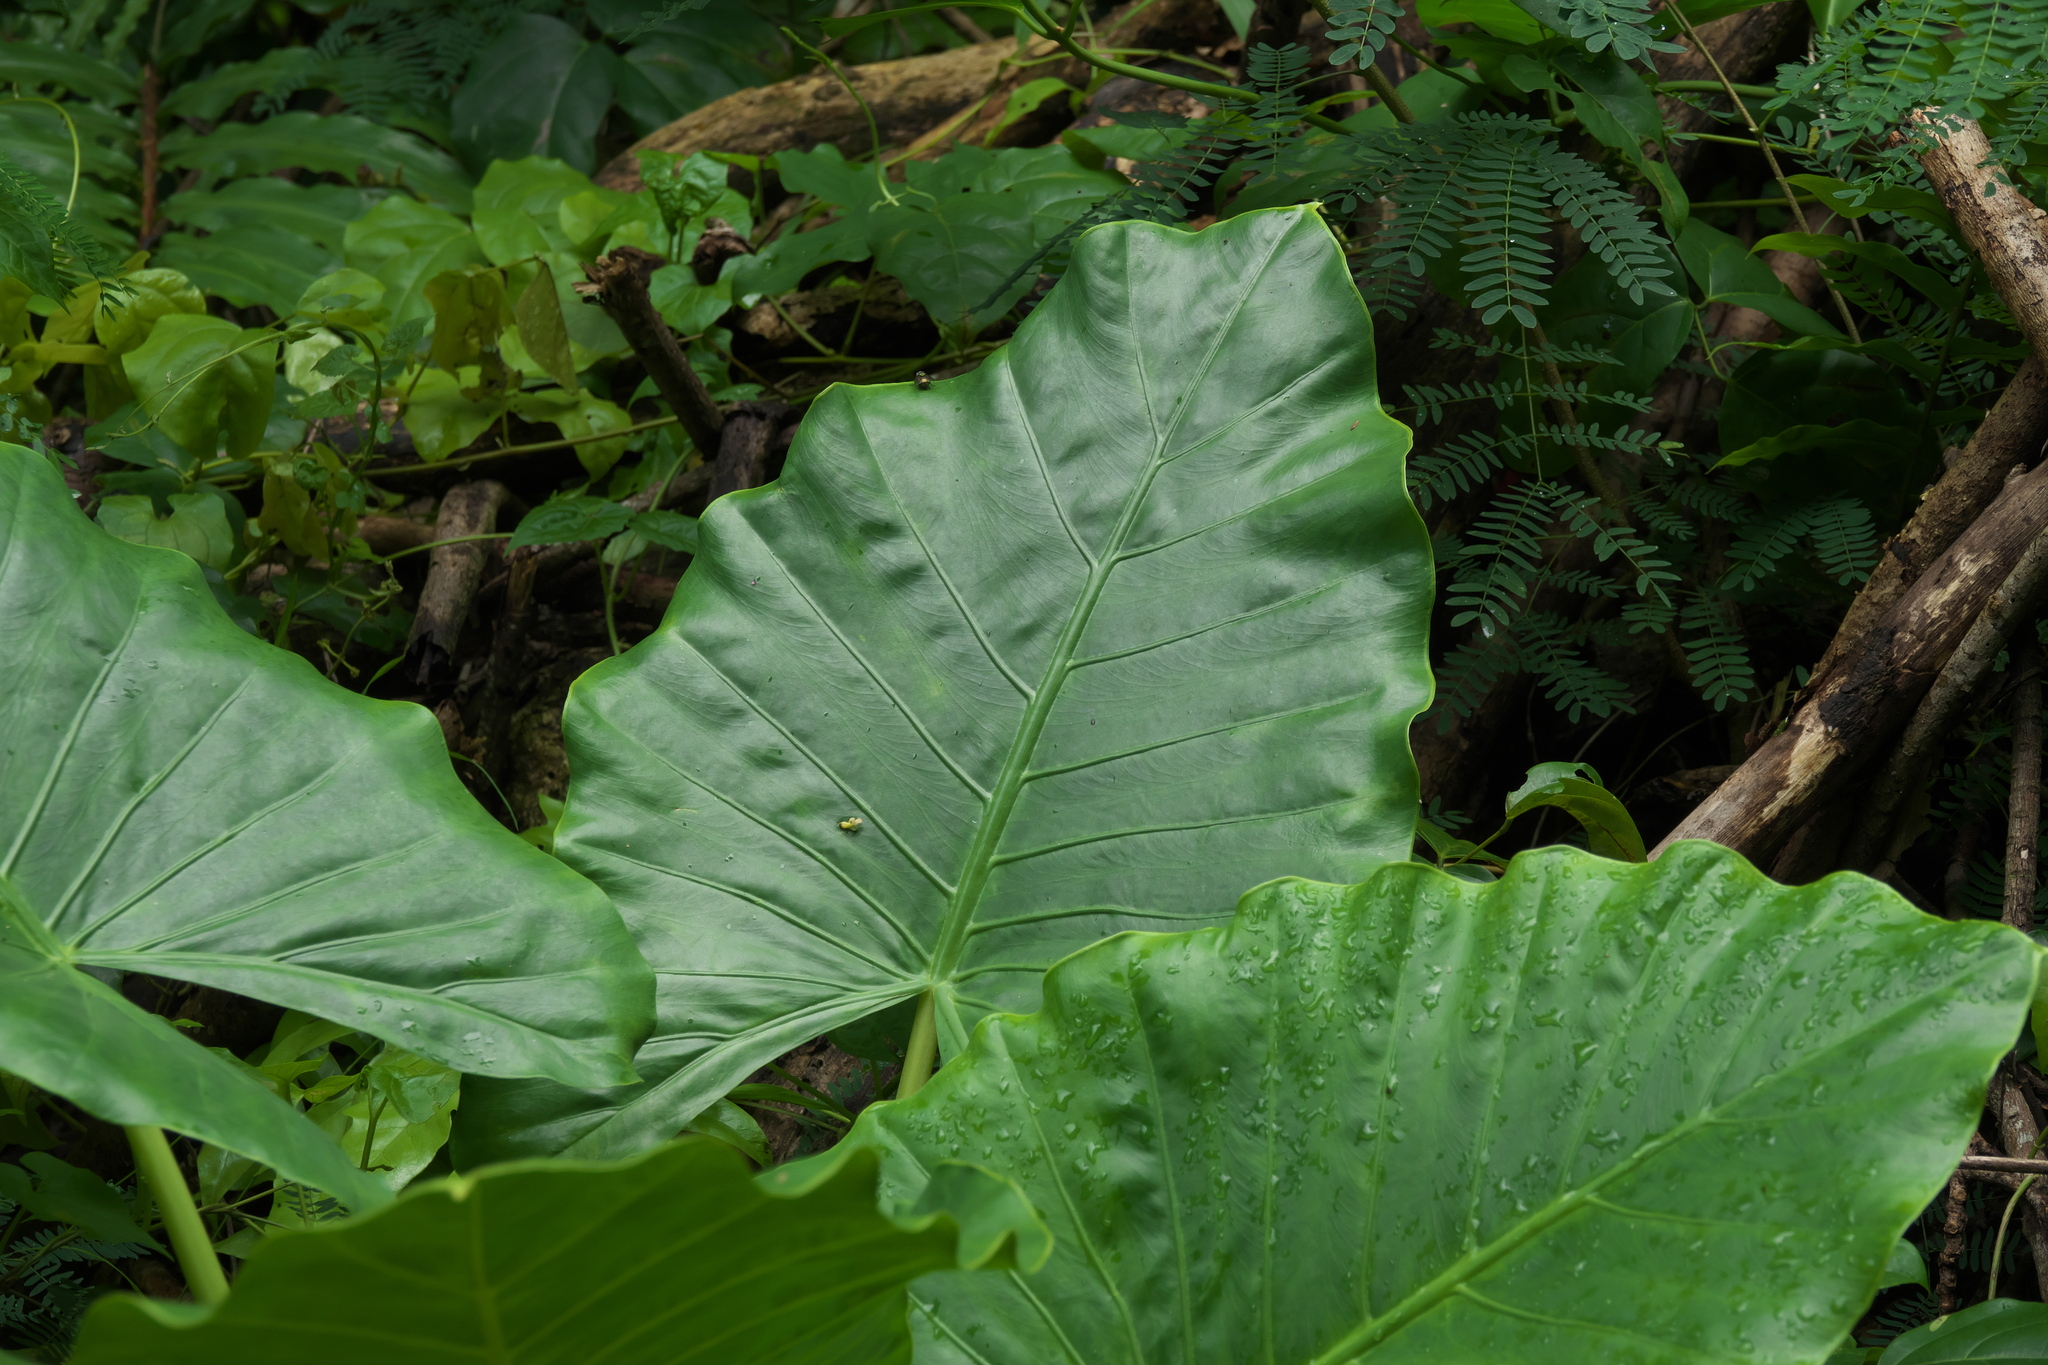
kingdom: Plantae
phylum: Tracheophyta
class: Liliopsida
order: Alismatales
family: Araceae
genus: Alocasia
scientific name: Alocasia macrorrhizos
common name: Giant taro
